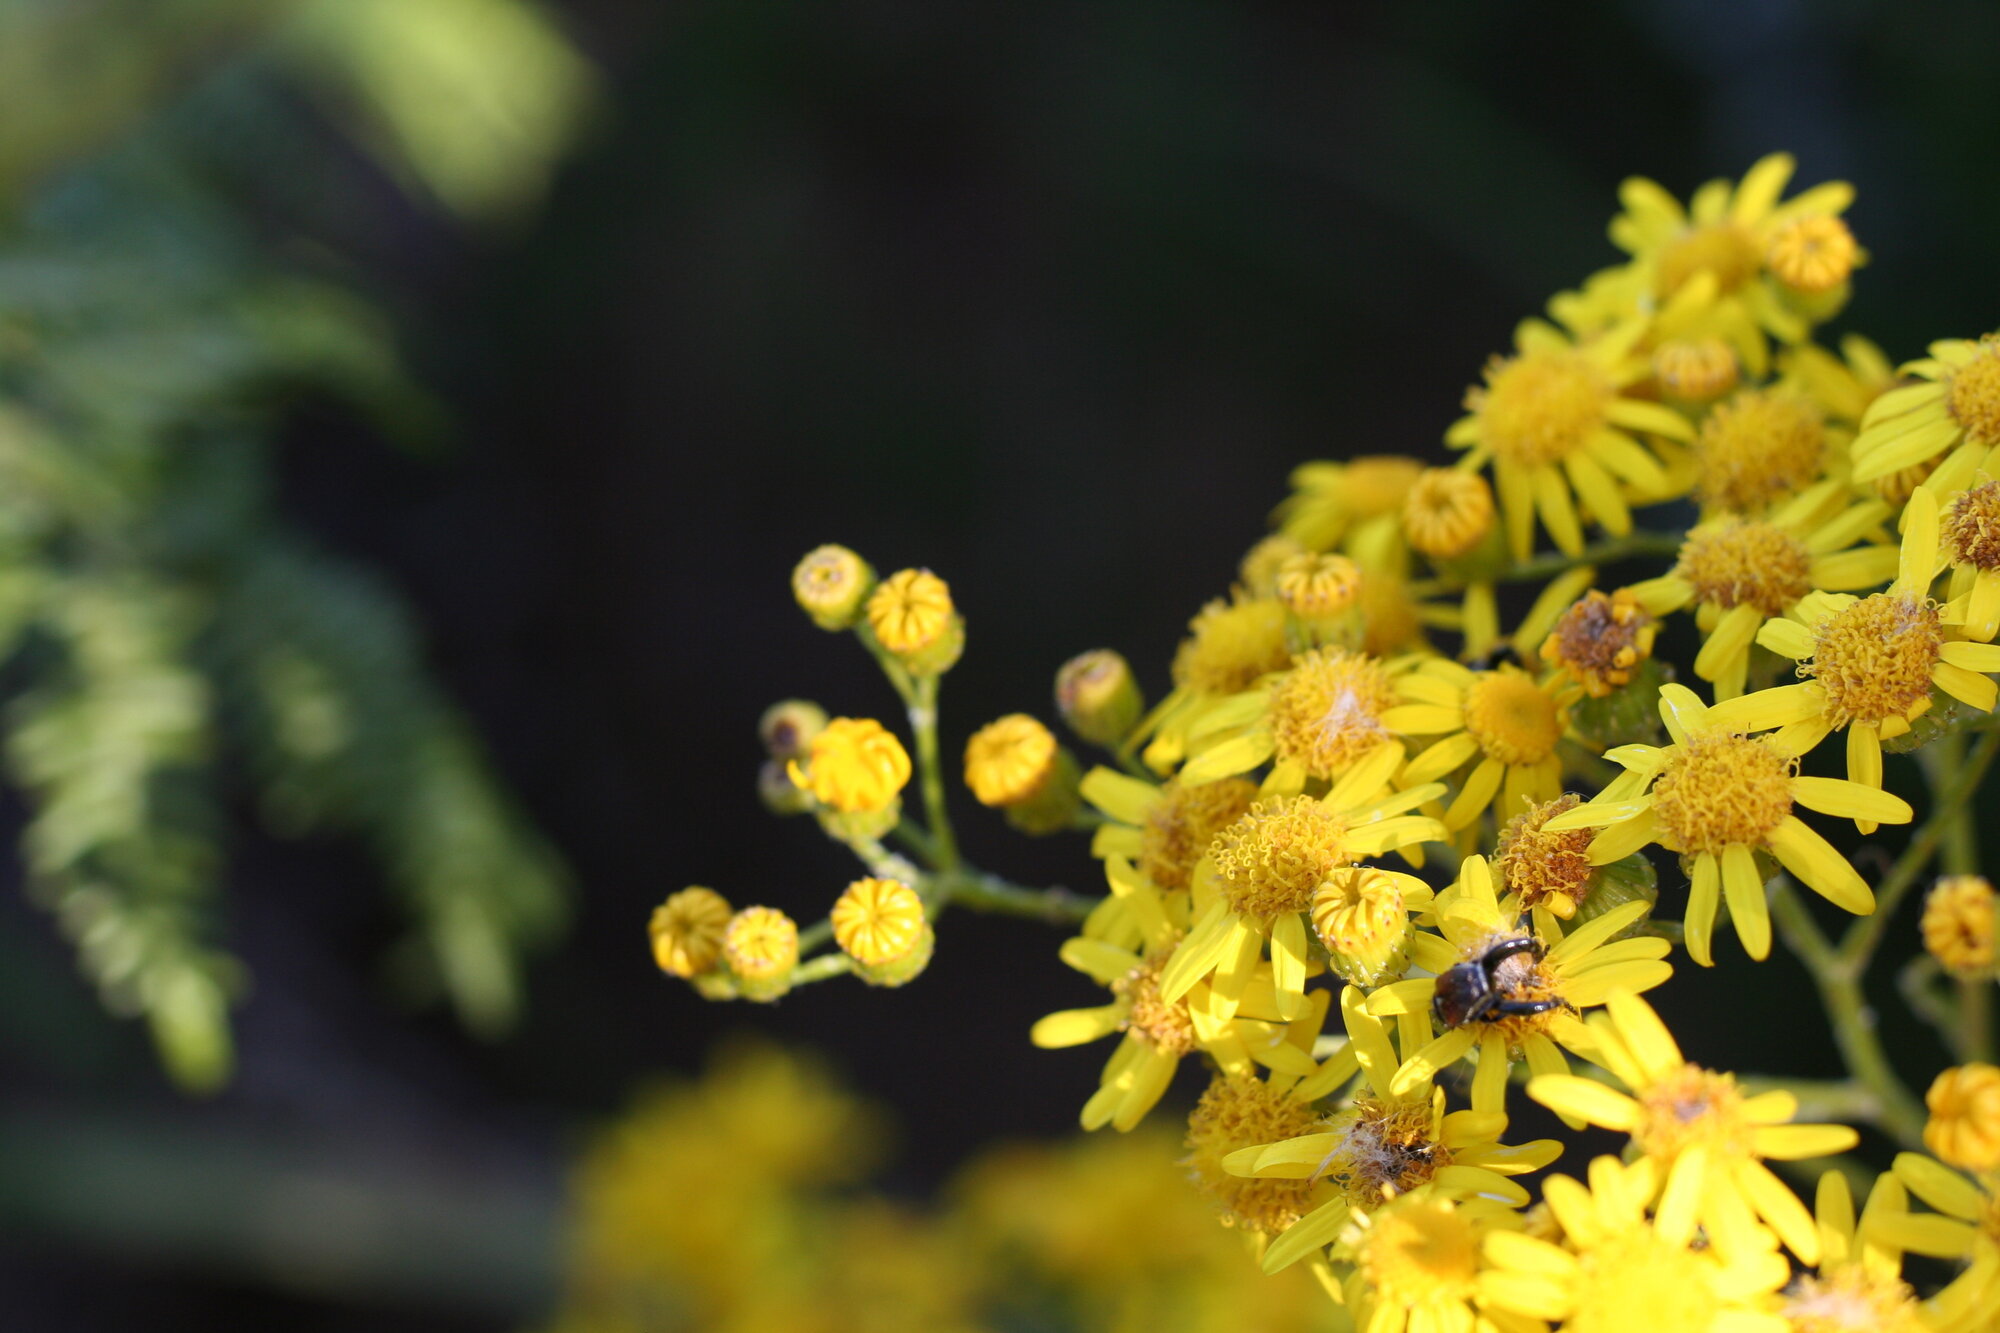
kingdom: Plantae
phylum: Tracheophyta
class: Magnoliopsida
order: Asterales
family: Asteraceae
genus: Senecio
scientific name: Senecio pterophorus
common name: Shoddy ragwort
